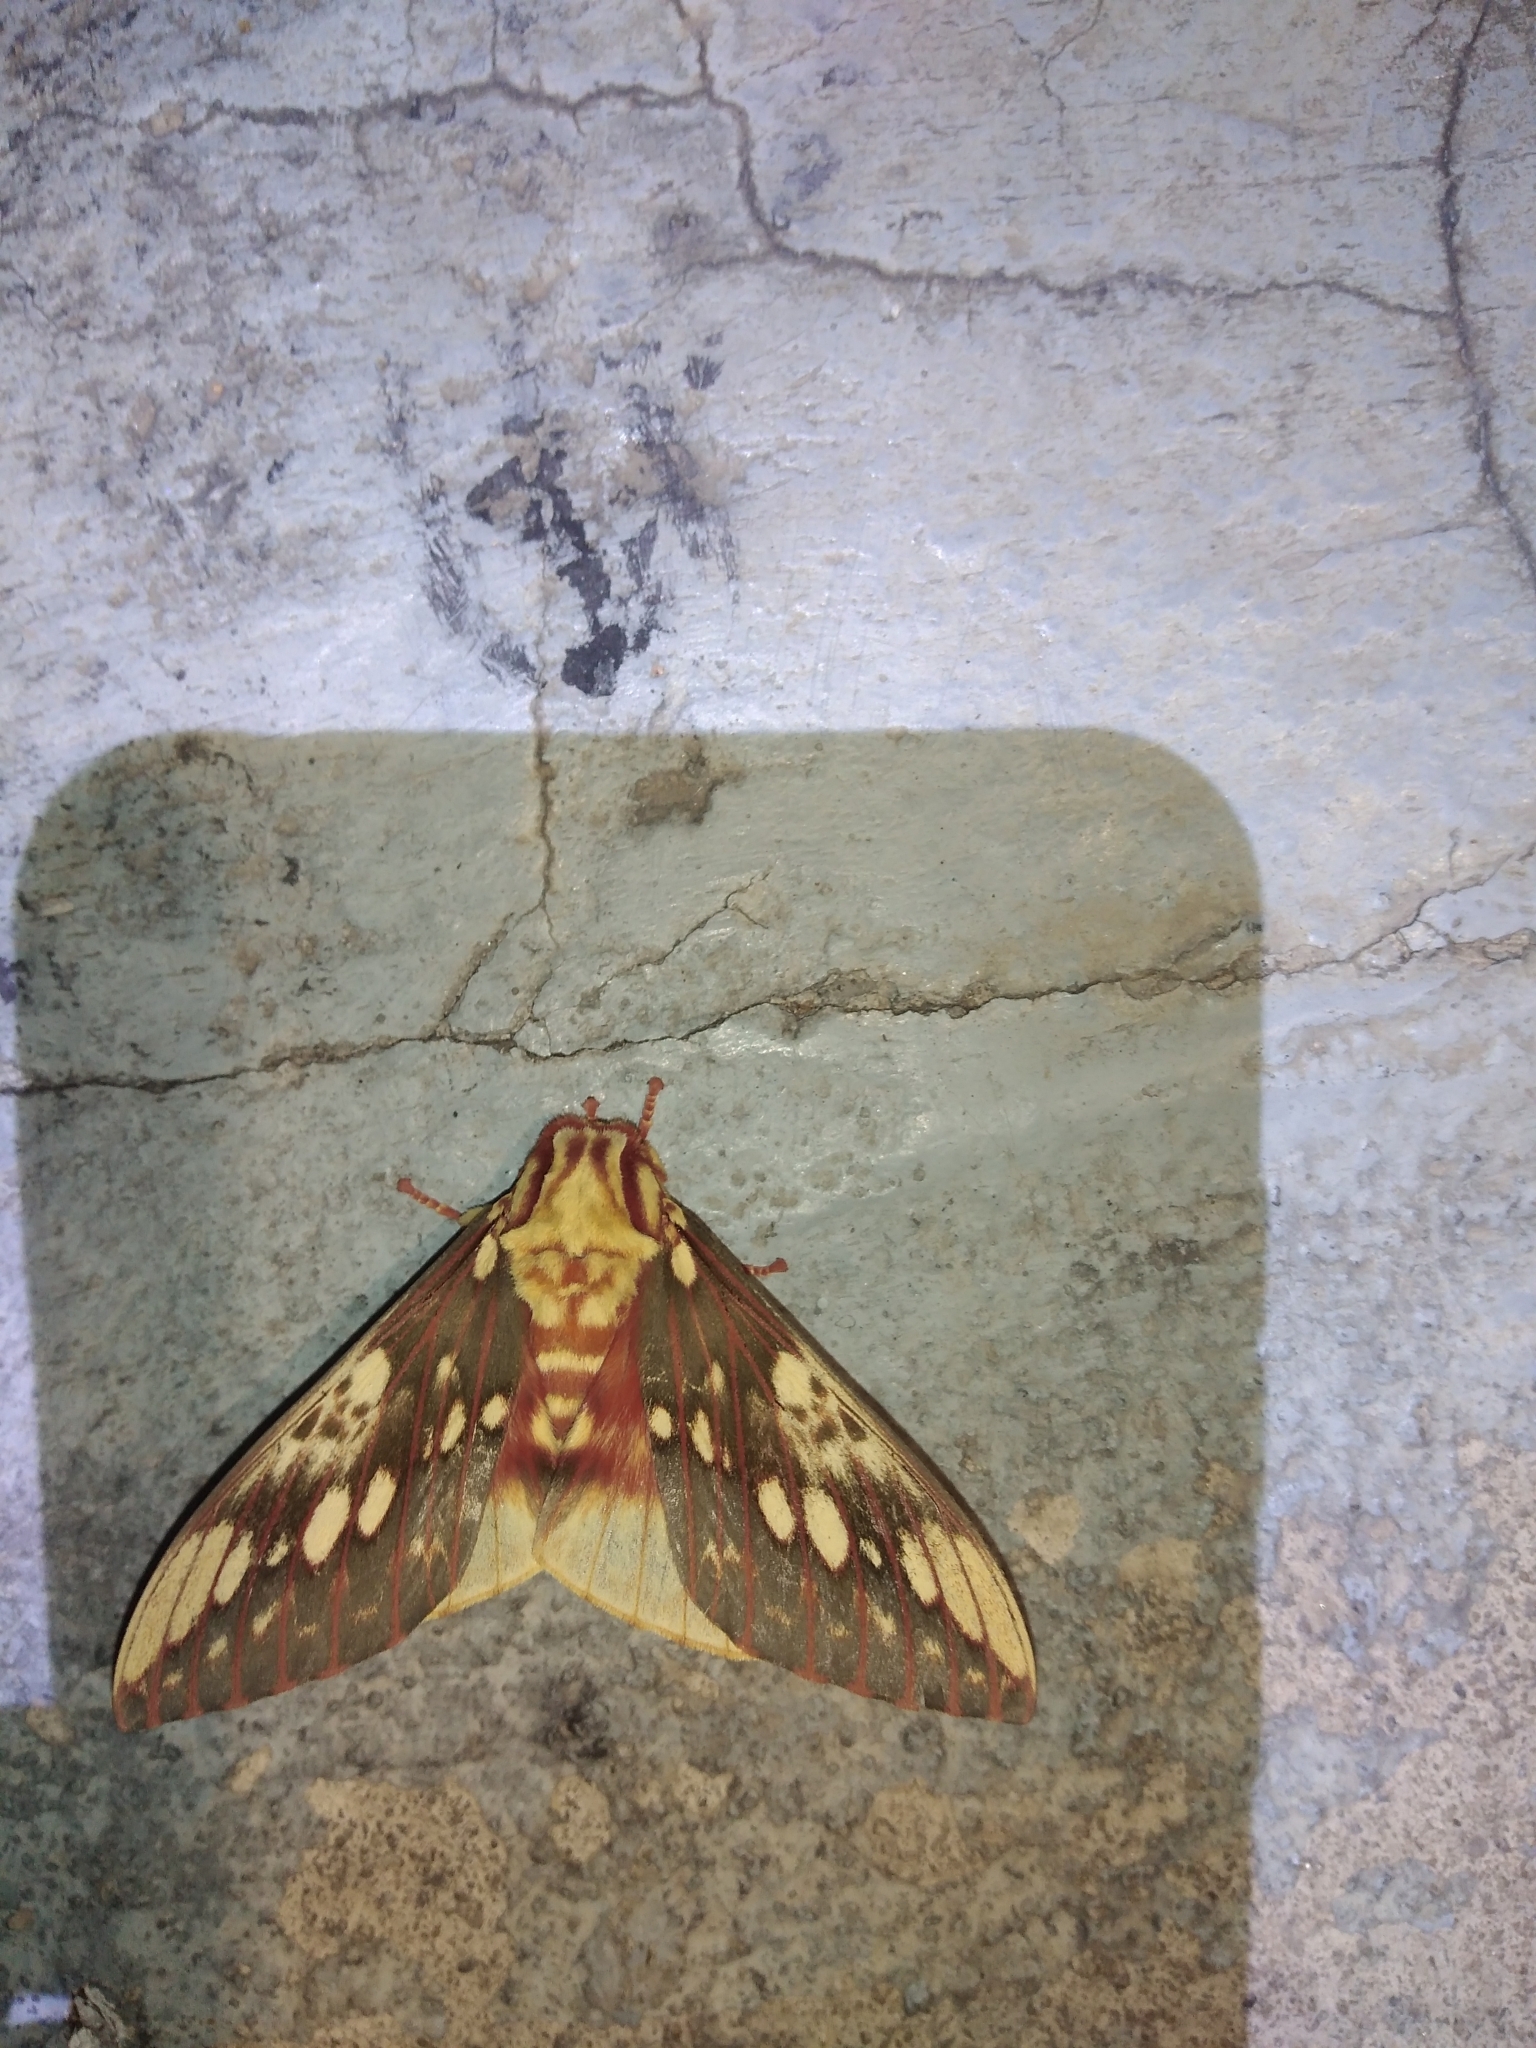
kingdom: Animalia
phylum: Arthropoda
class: Insecta
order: Lepidoptera
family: Saturniidae
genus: Citheronia
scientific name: Citheronia brissotii
